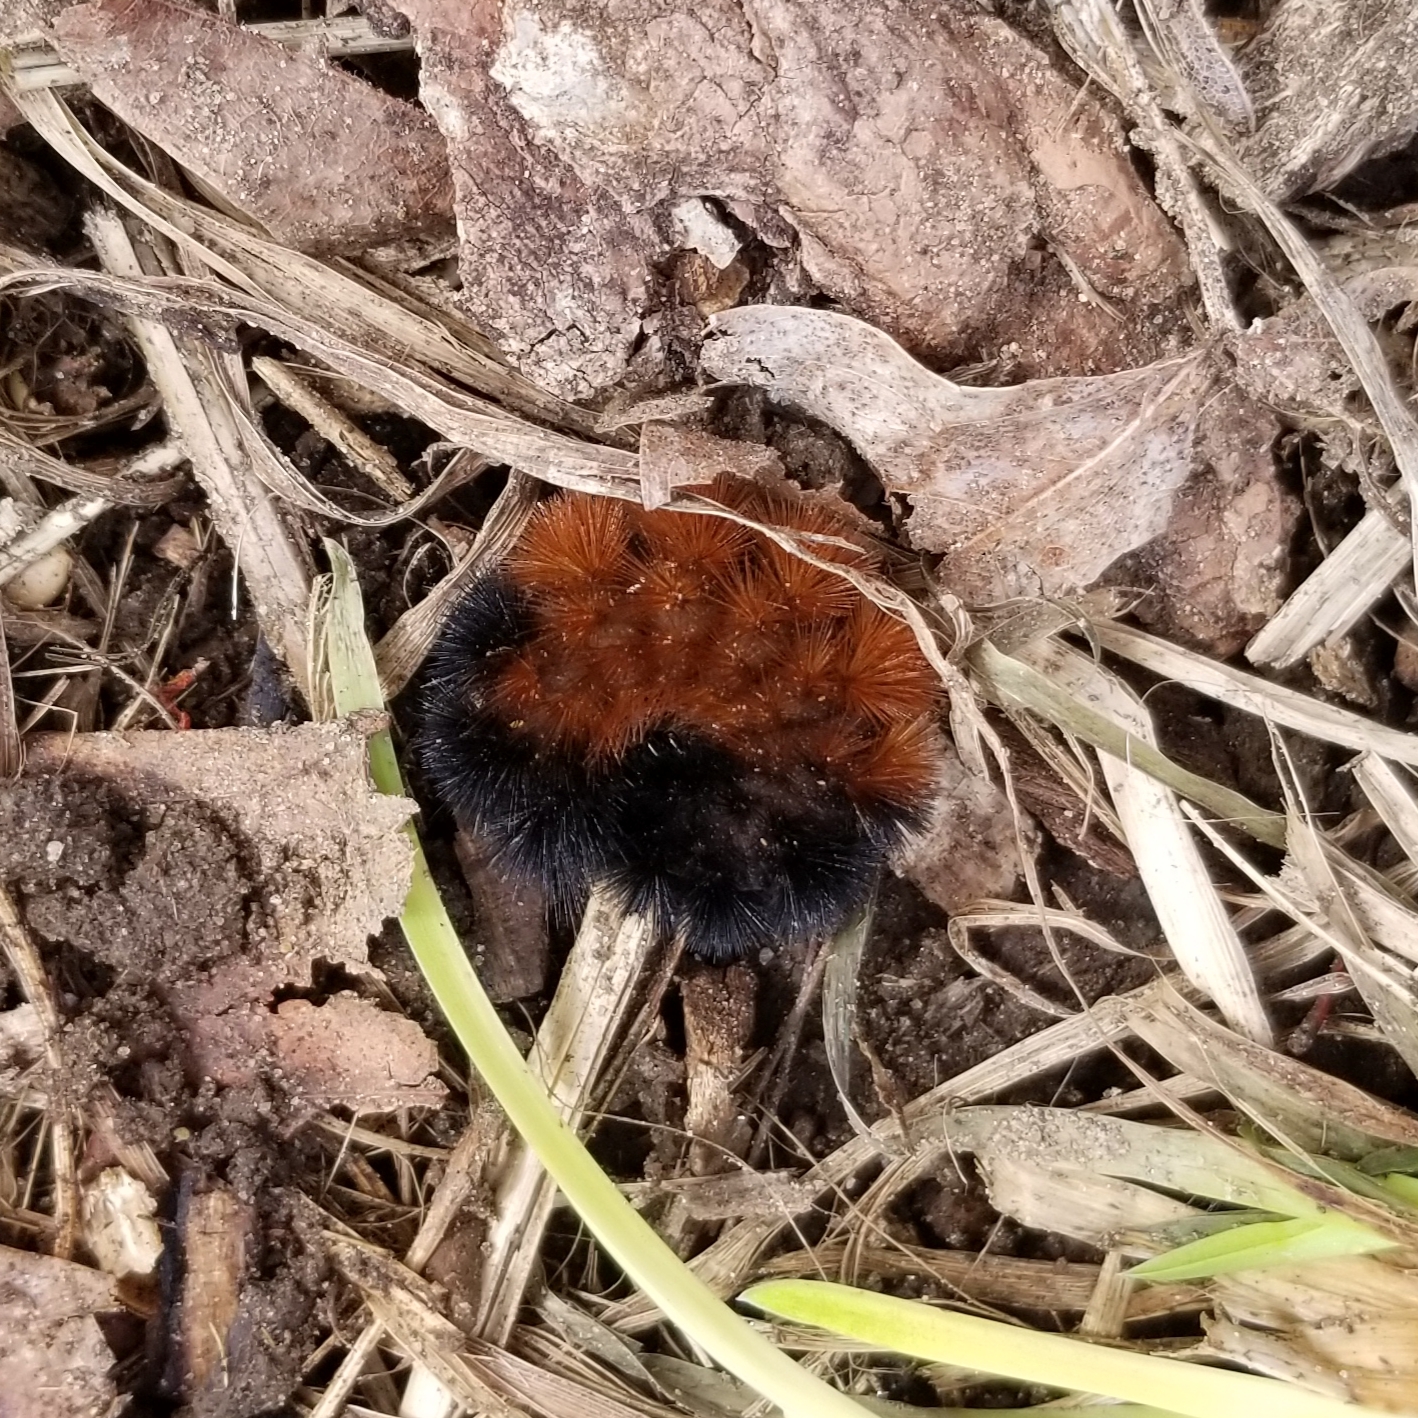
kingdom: Animalia
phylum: Arthropoda
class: Insecta
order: Lepidoptera
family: Erebidae
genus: Pyrrharctia
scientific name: Pyrrharctia isabella
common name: Isabella tiger moth
